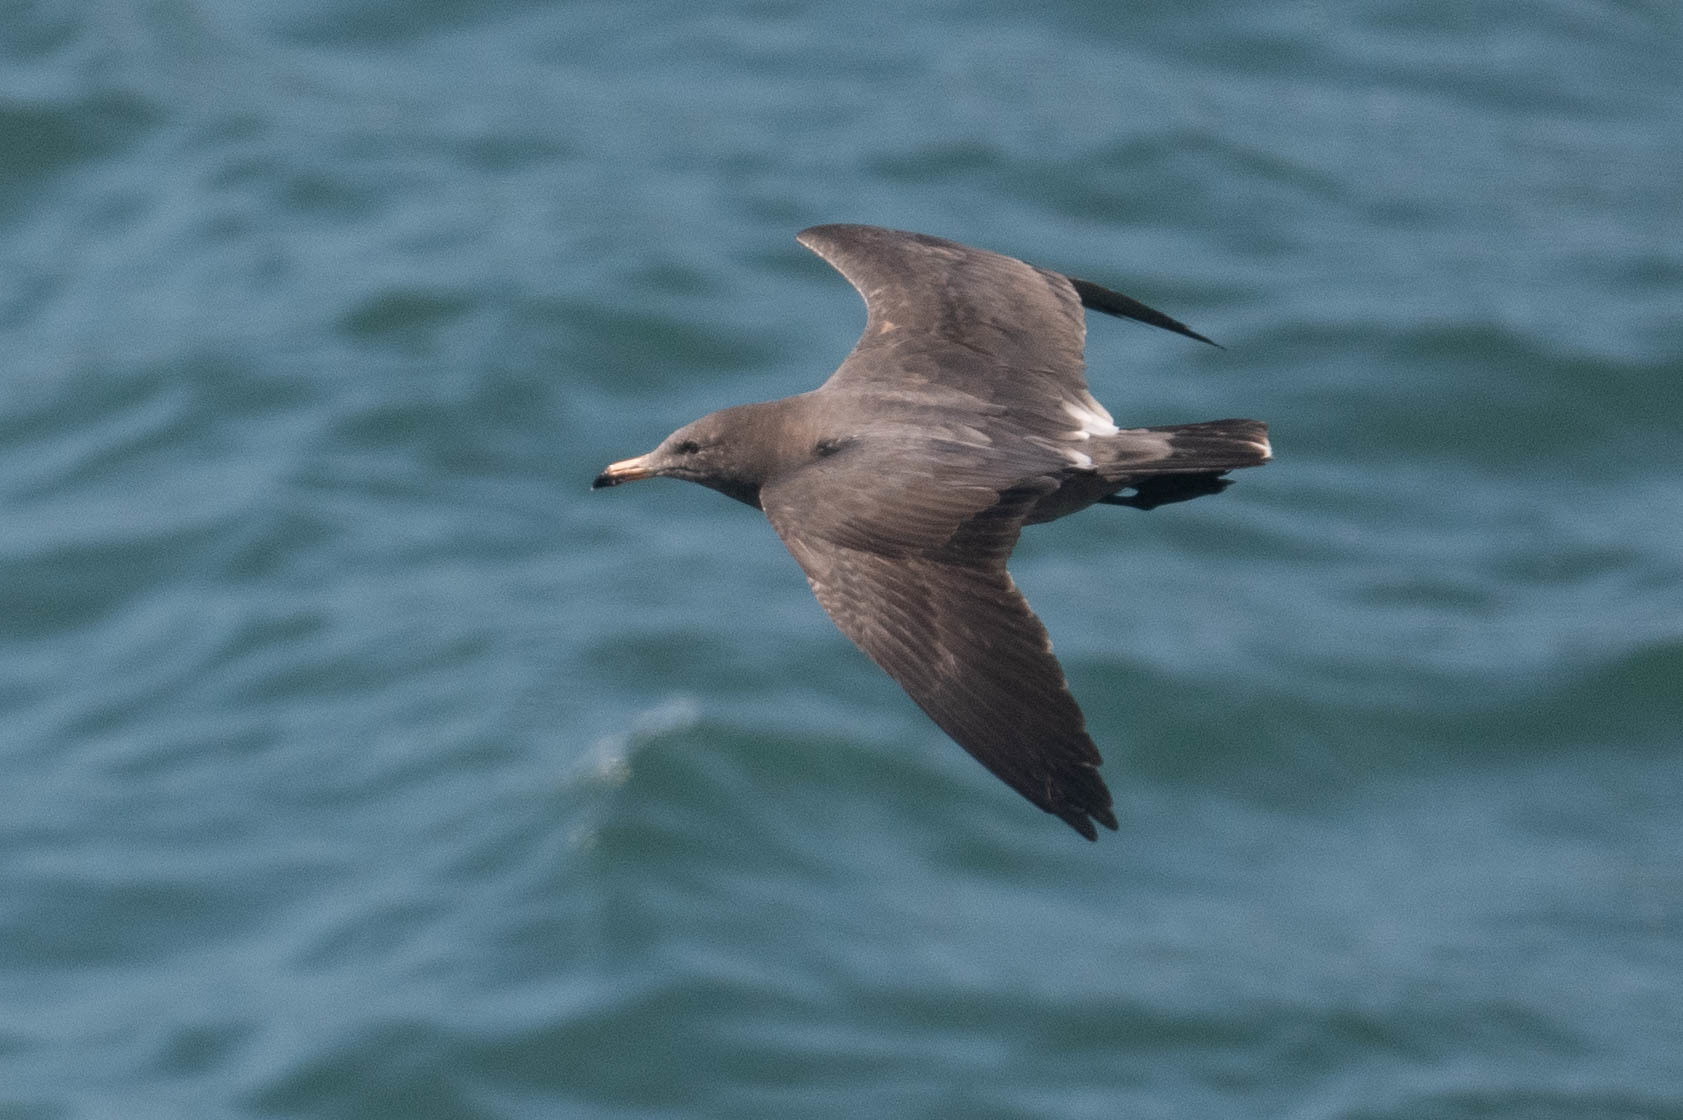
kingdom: Animalia
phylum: Chordata
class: Aves
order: Charadriiformes
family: Laridae
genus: Larus
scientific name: Larus heermanni
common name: Heermann's gull
